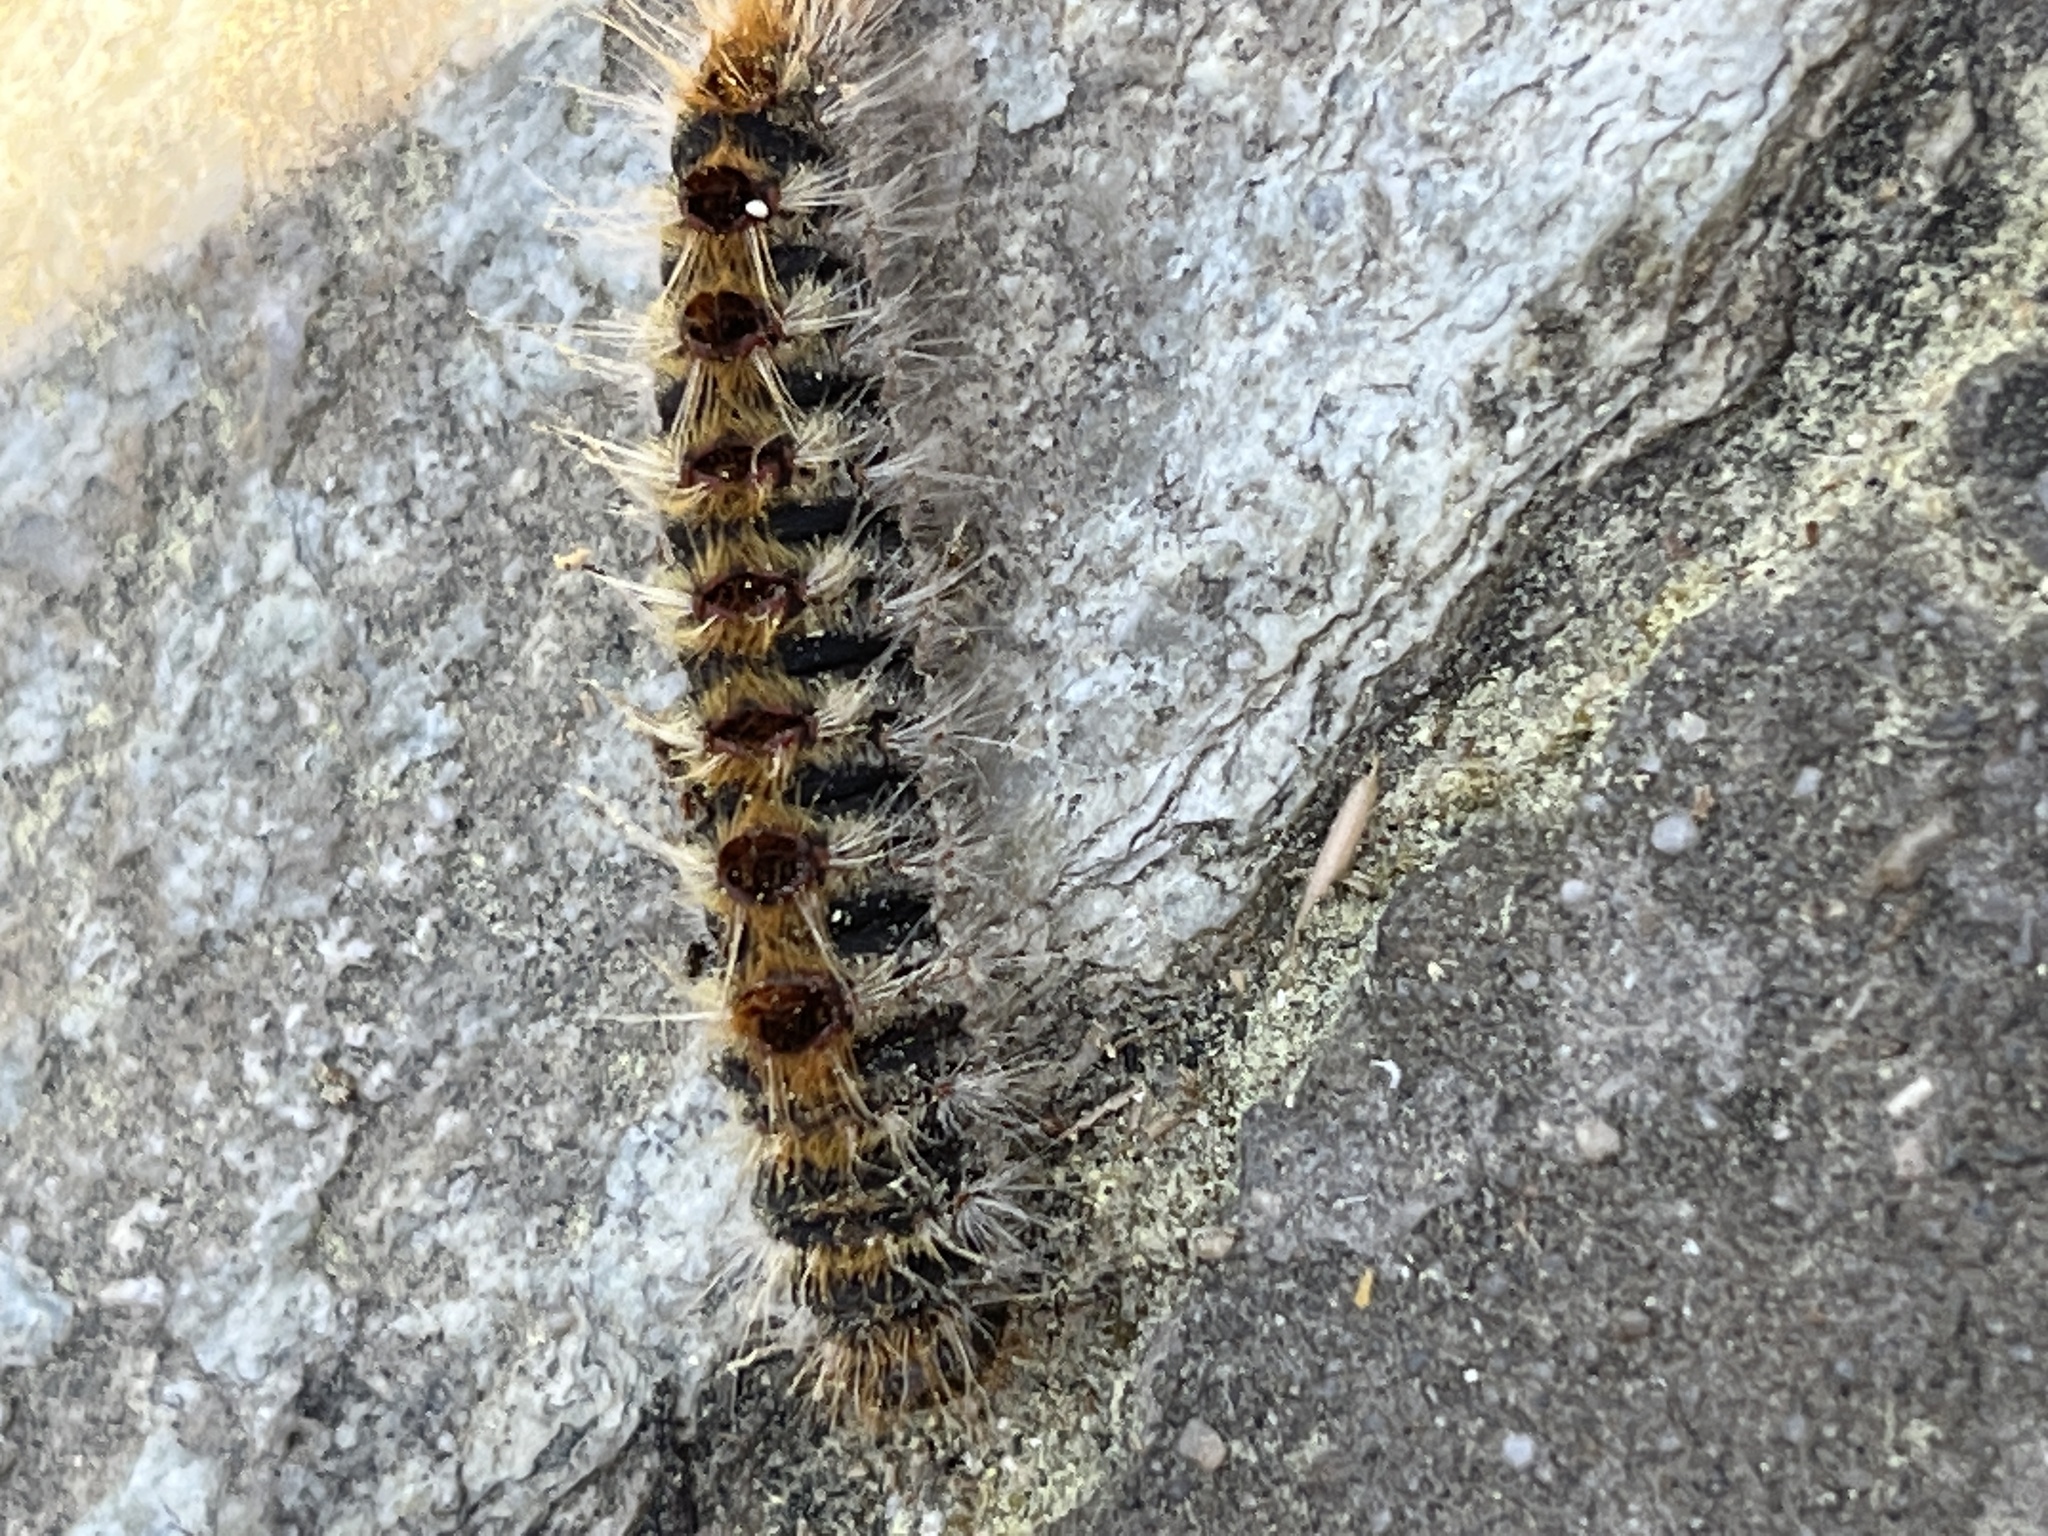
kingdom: Animalia
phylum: Arthropoda
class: Insecta
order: Lepidoptera
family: Notodontidae
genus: Thaumetopoea
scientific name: Thaumetopoea pityocampa
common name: Pine processionary
